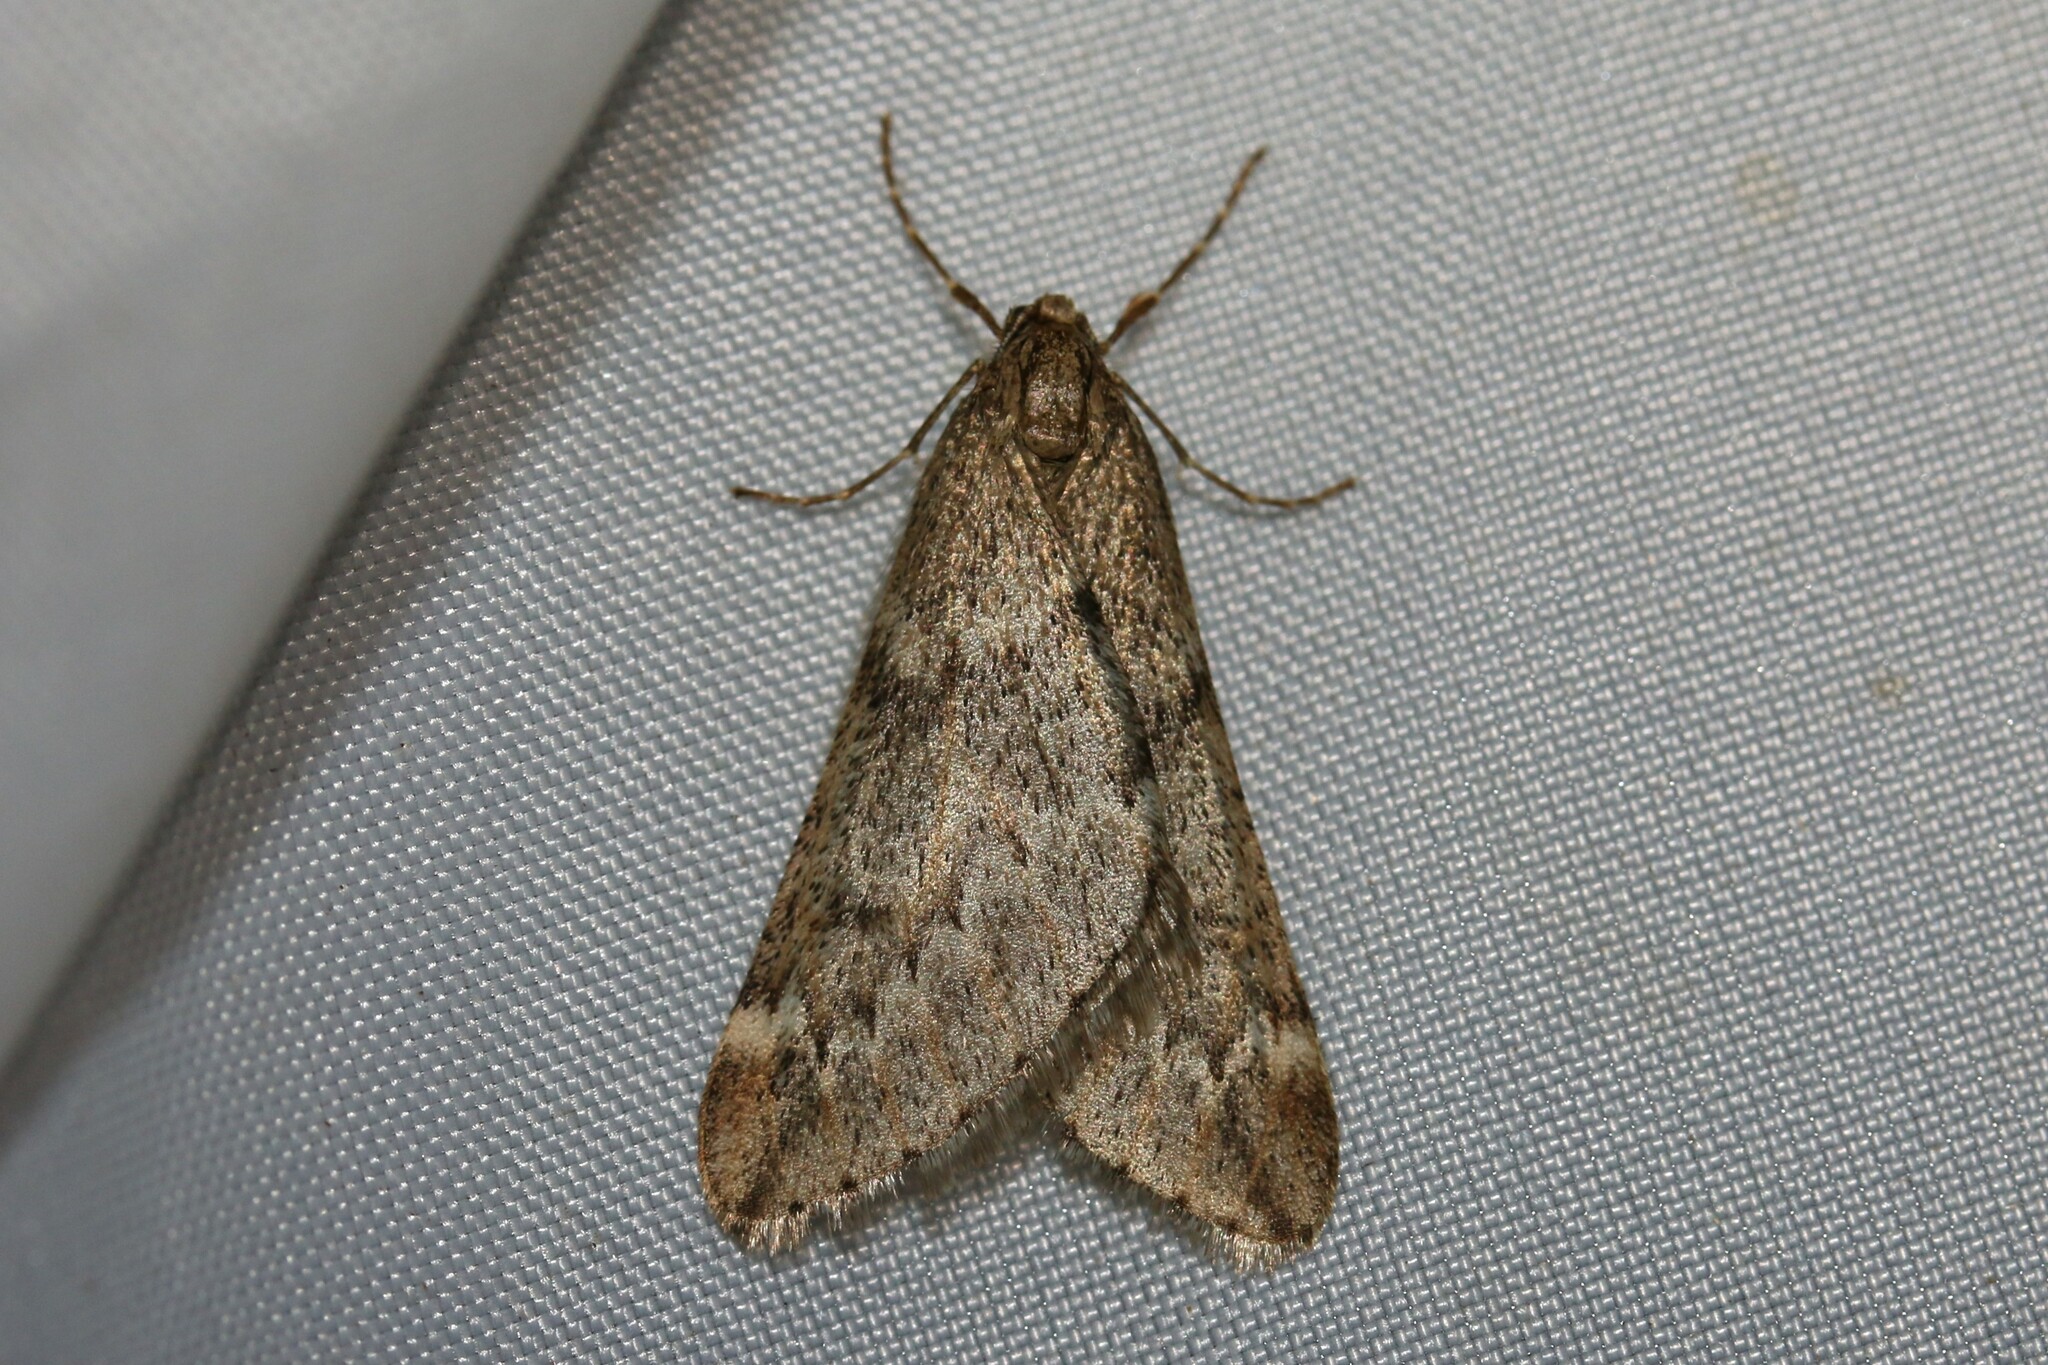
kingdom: Animalia
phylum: Arthropoda
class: Insecta
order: Lepidoptera
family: Geometridae
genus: Alsophila
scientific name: Alsophila aescularia
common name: March moth
